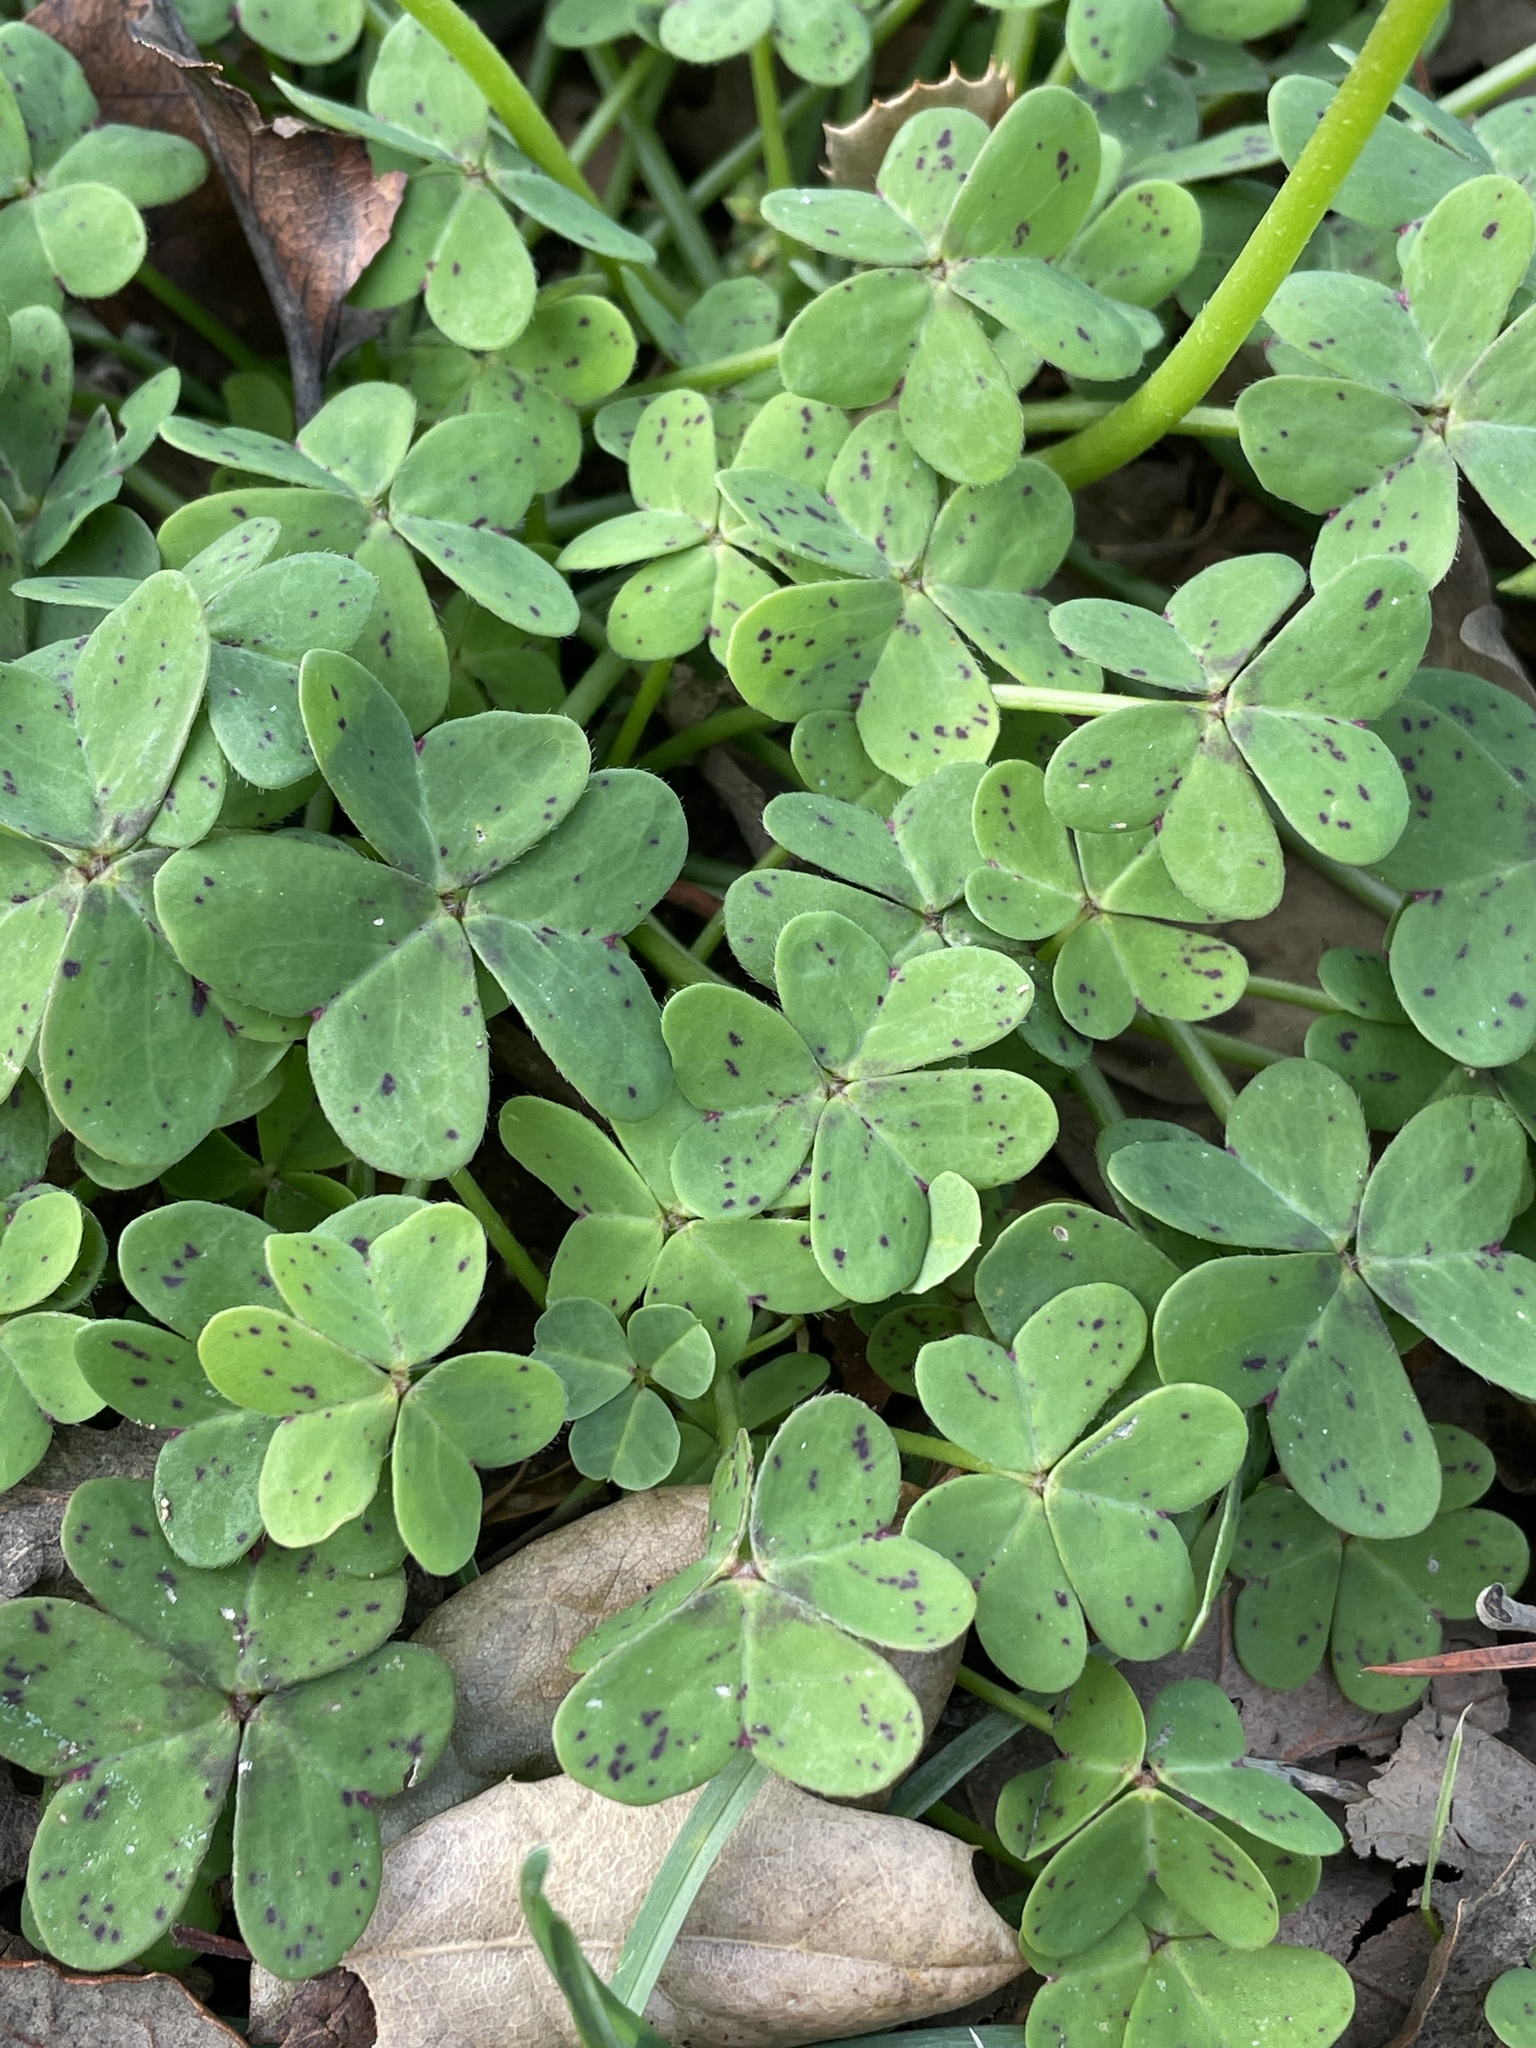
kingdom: Plantae
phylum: Tracheophyta
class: Magnoliopsida
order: Oxalidales
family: Oxalidaceae
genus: Oxalis
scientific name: Oxalis pes-caprae
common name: Bermuda-buttercup
